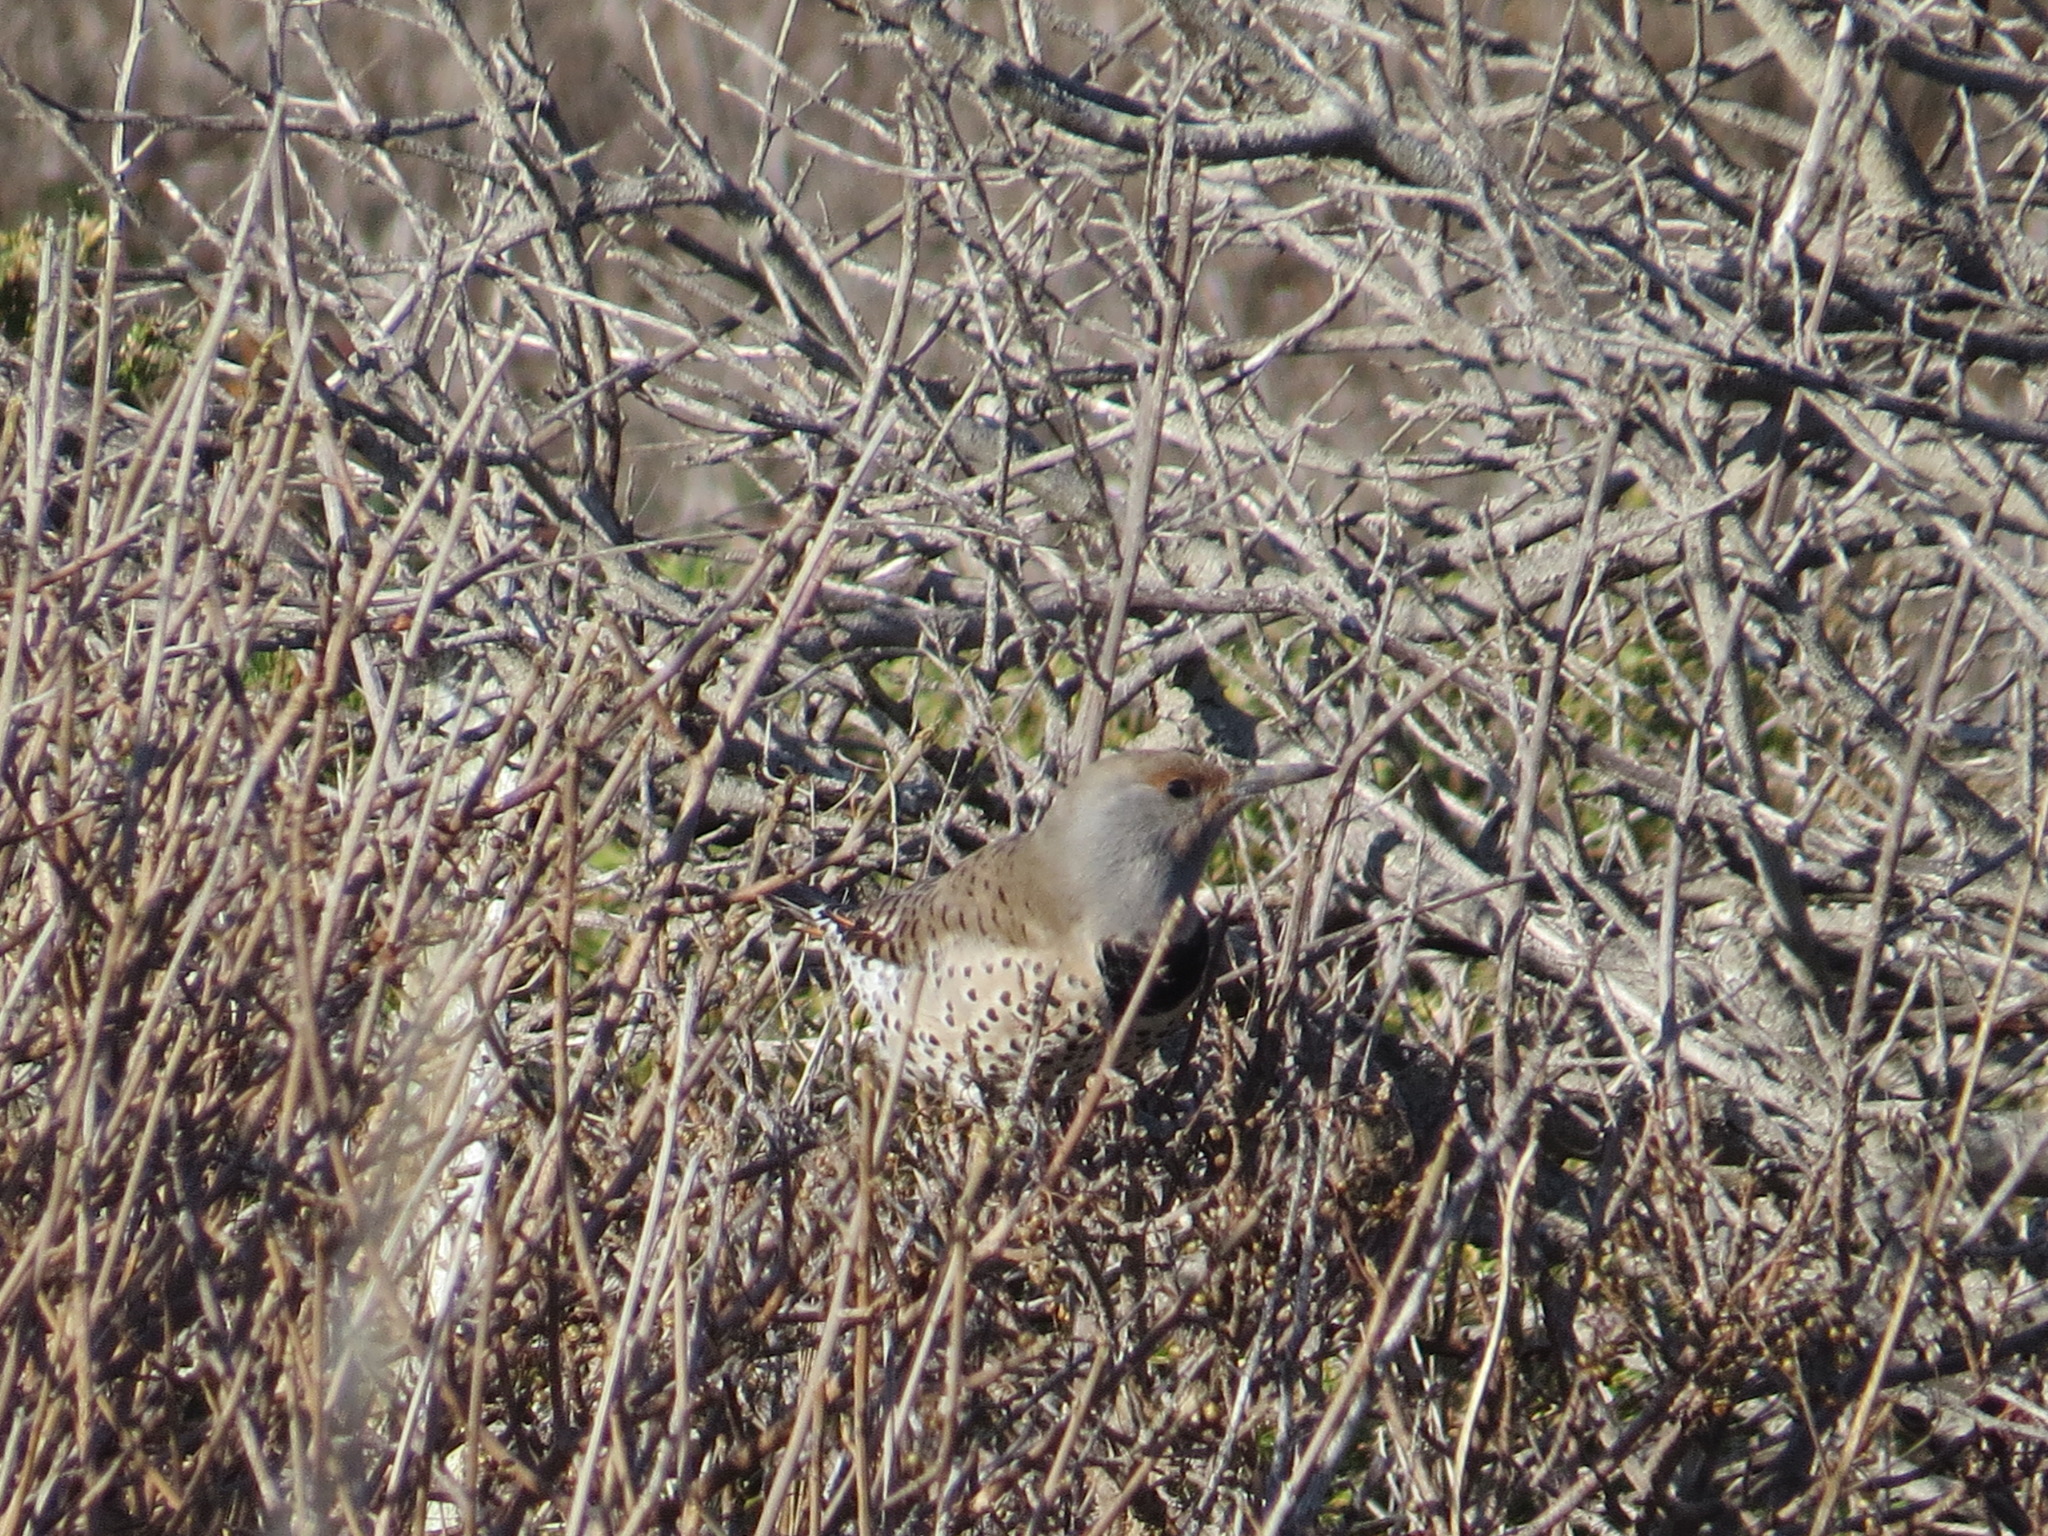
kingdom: Animalia
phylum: Chordata
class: Aves
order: Piciformes
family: Picidae
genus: Colaptes
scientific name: Colaptes auratus
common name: Northern flicker
